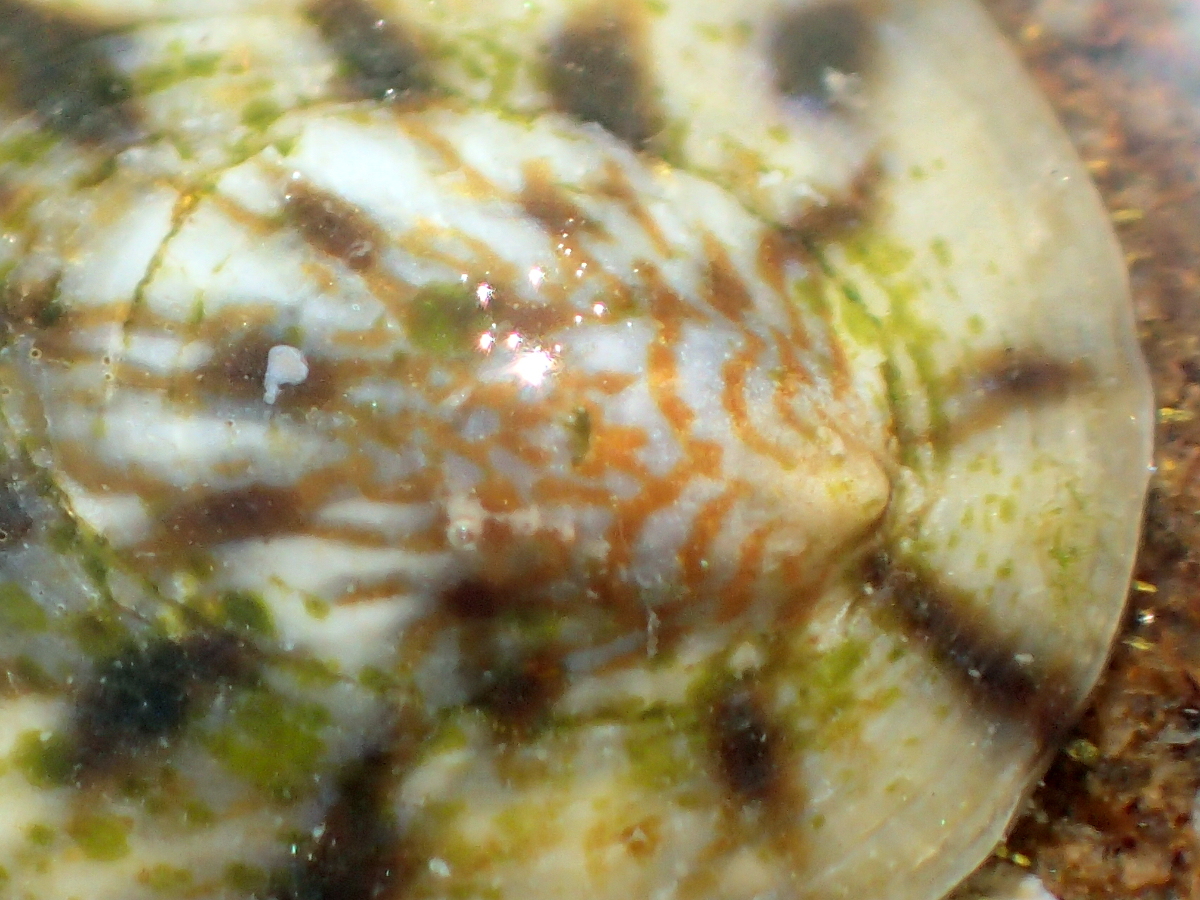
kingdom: Animalia
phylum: Mollusca
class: Gastropoda
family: Nacellidae
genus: Cellana
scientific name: Cellana radians
